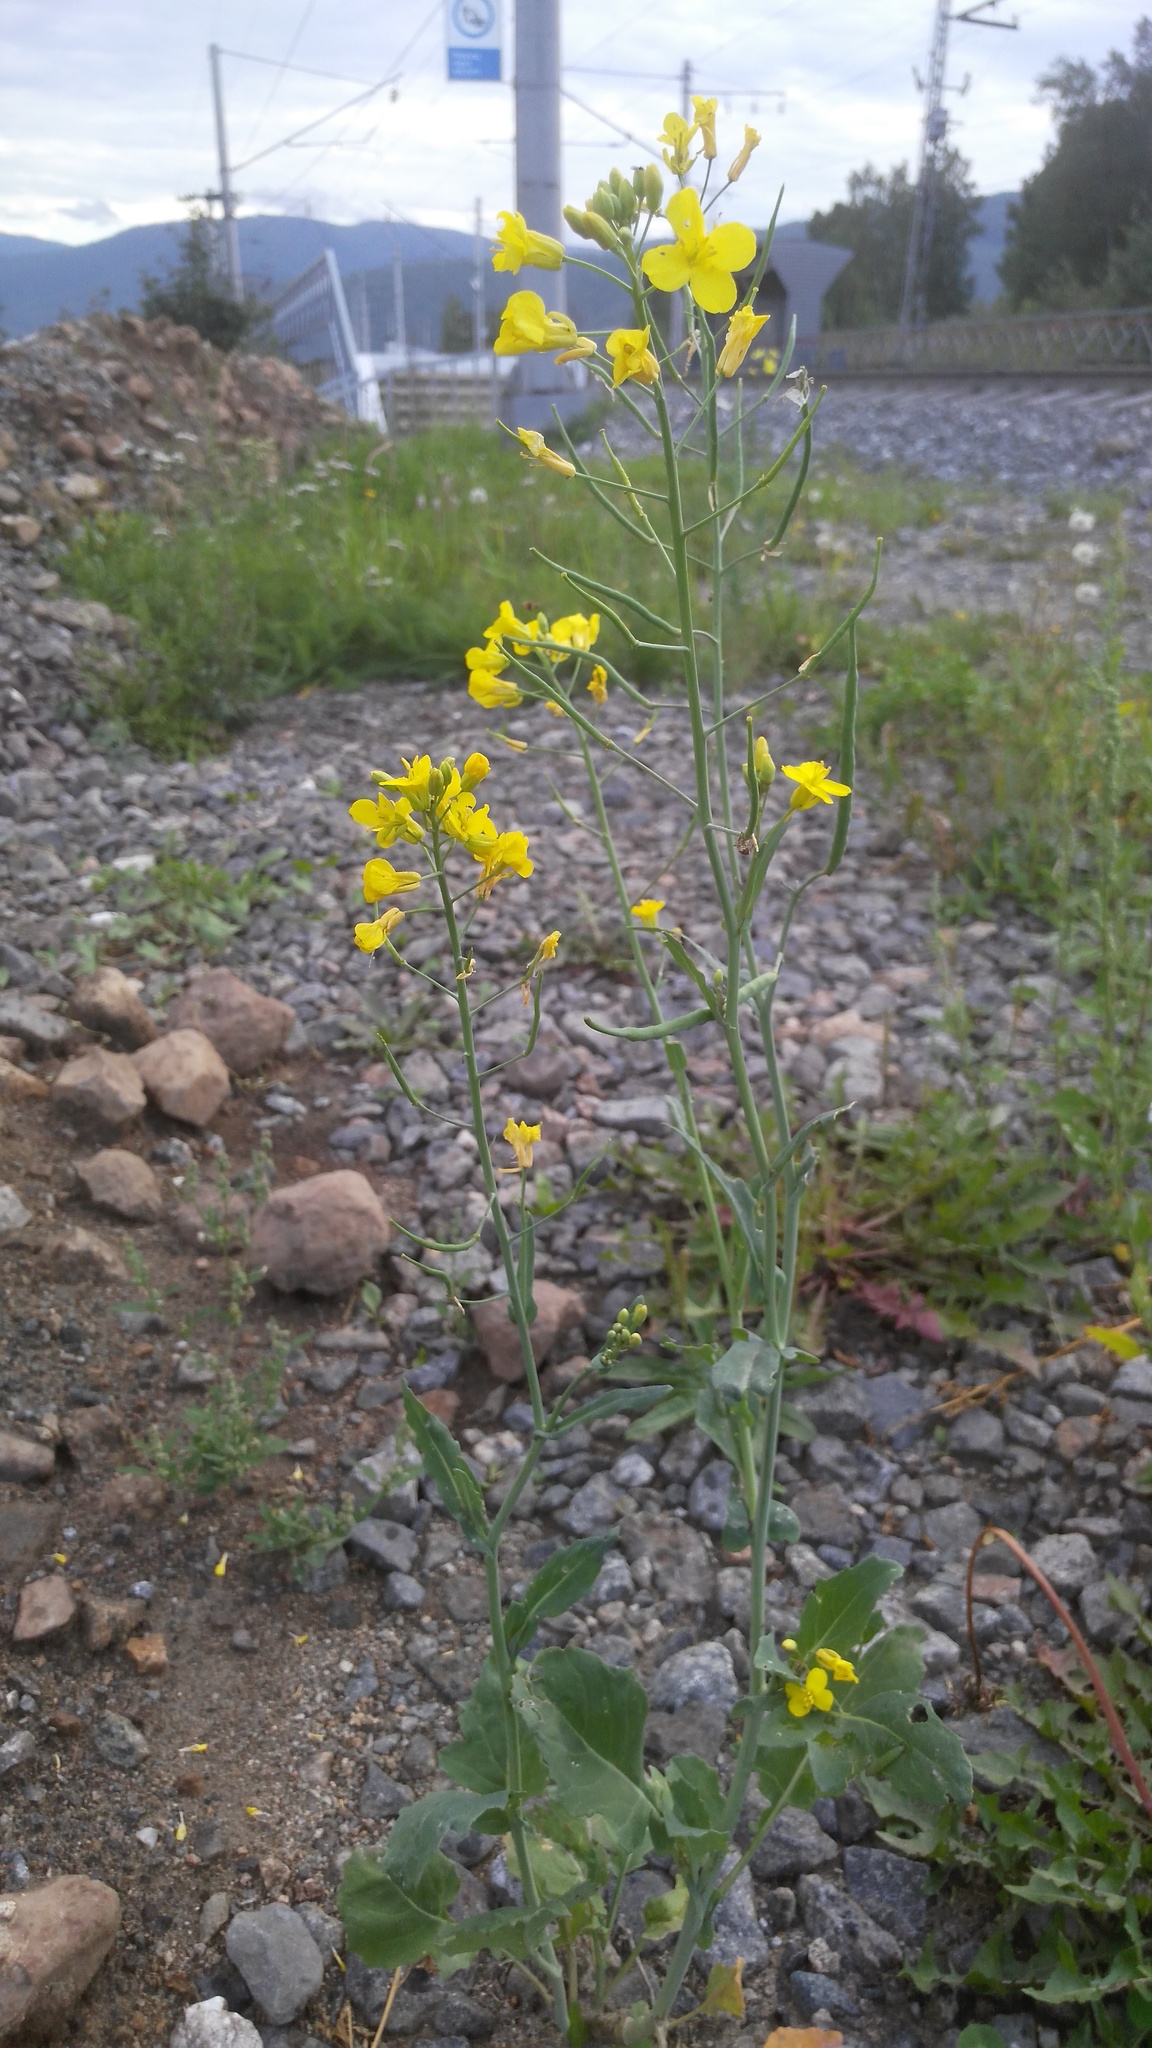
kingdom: Plantae
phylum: Tracheophyta
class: Magnoliopsida
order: Brassicales
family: Brassicaceae
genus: Brassica
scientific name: Brassica napus
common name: Rape
